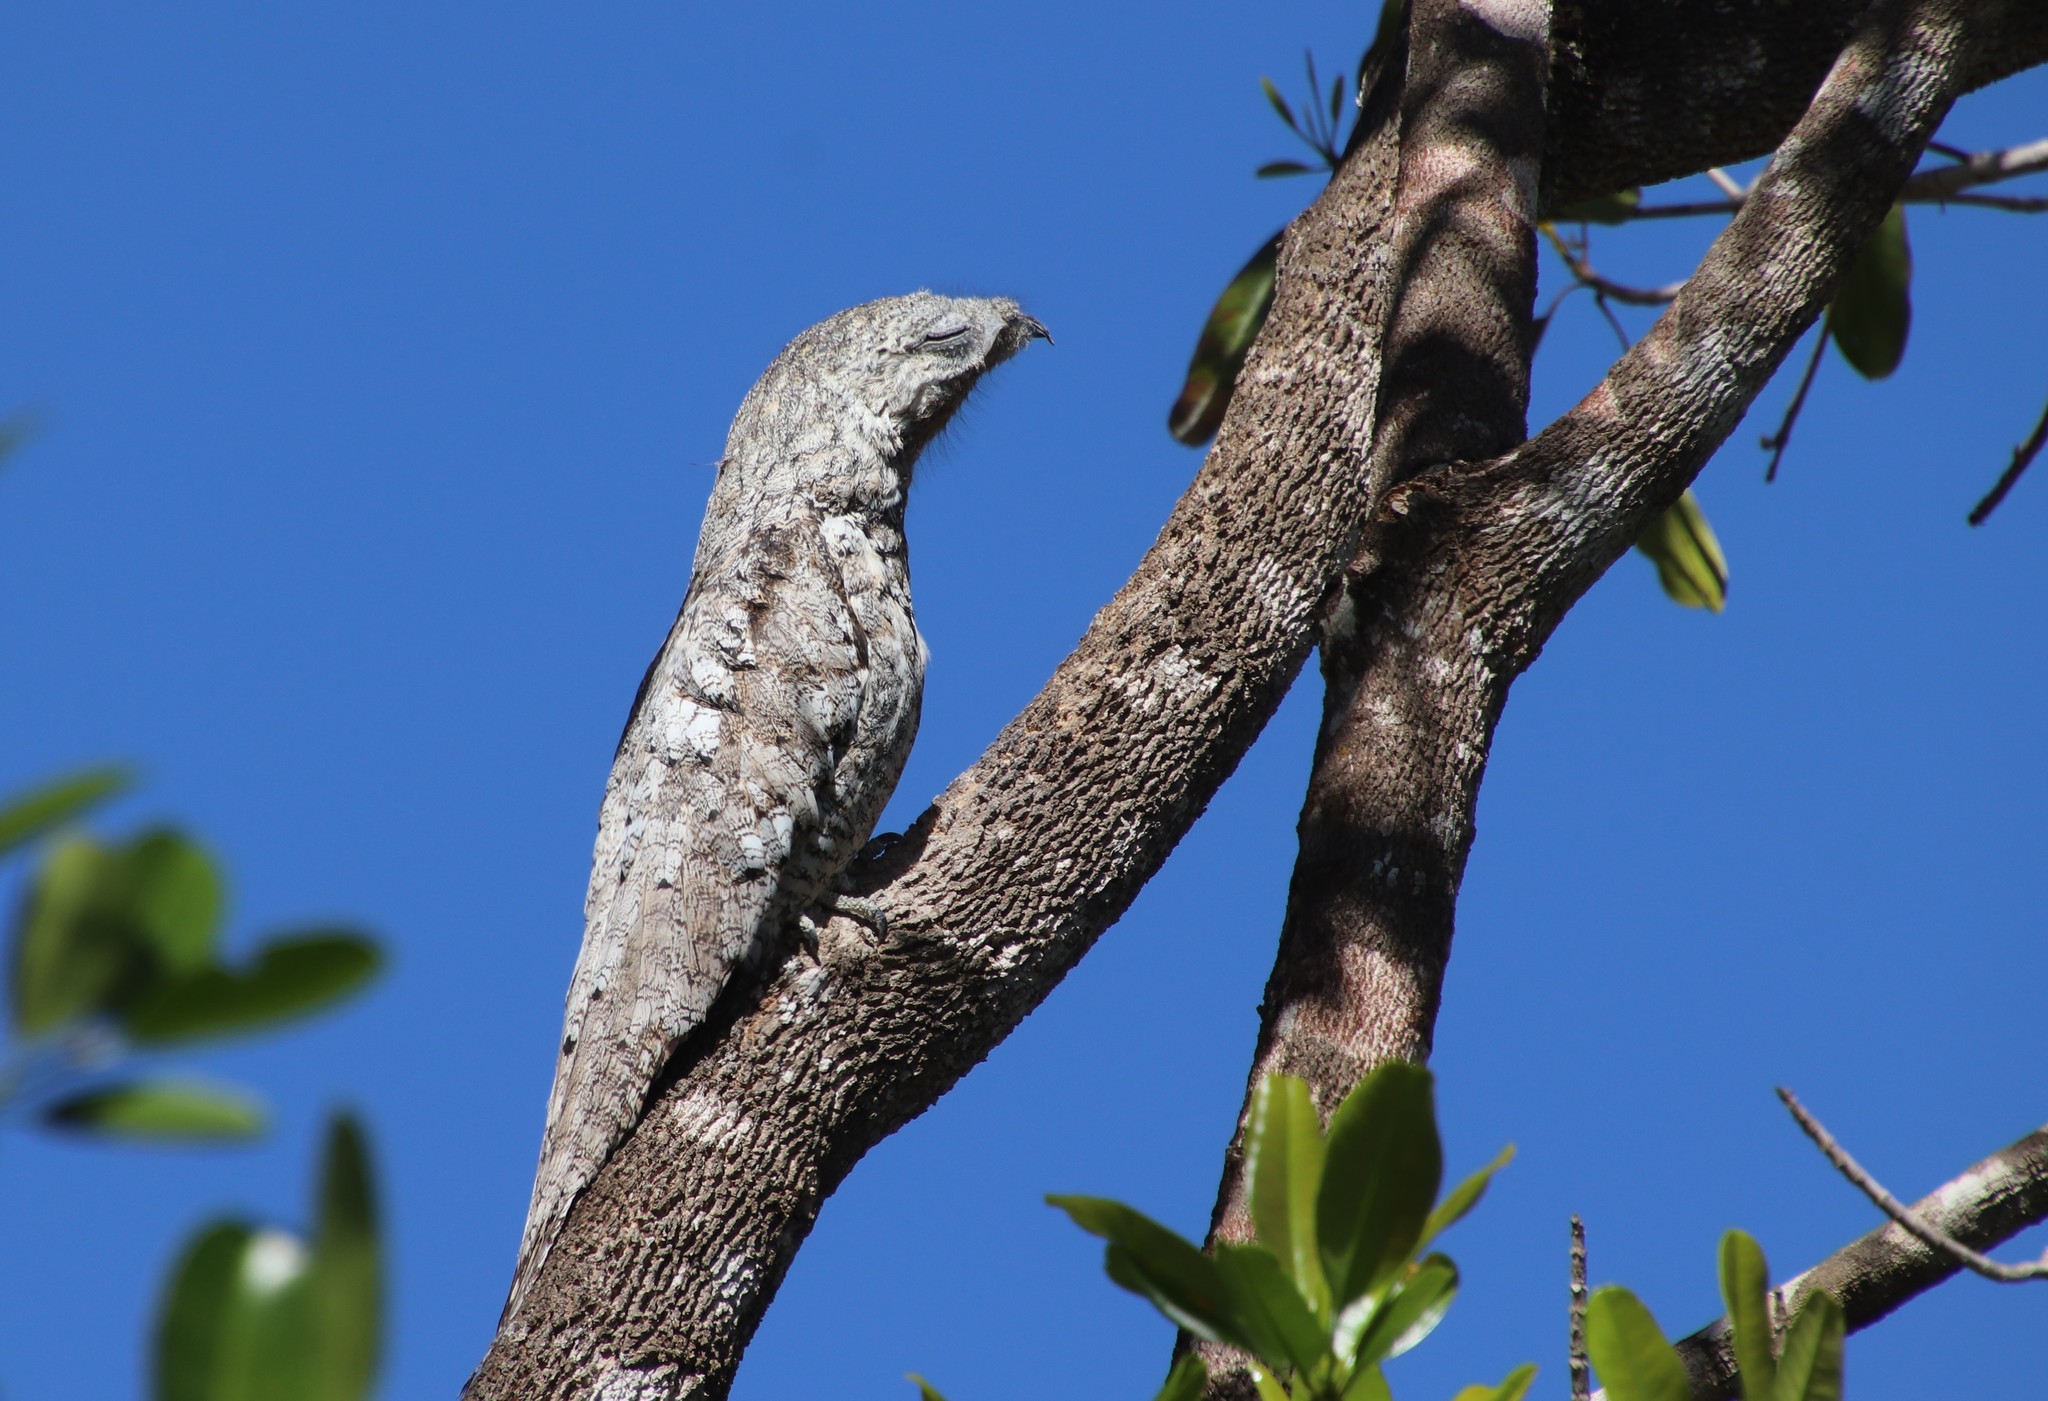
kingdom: Animalia
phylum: Chordata
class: Aves
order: Nyctibiiformes
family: Nyctibiidae
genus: Nyctibius
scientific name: Nyctibius grandis
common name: Great potoo
